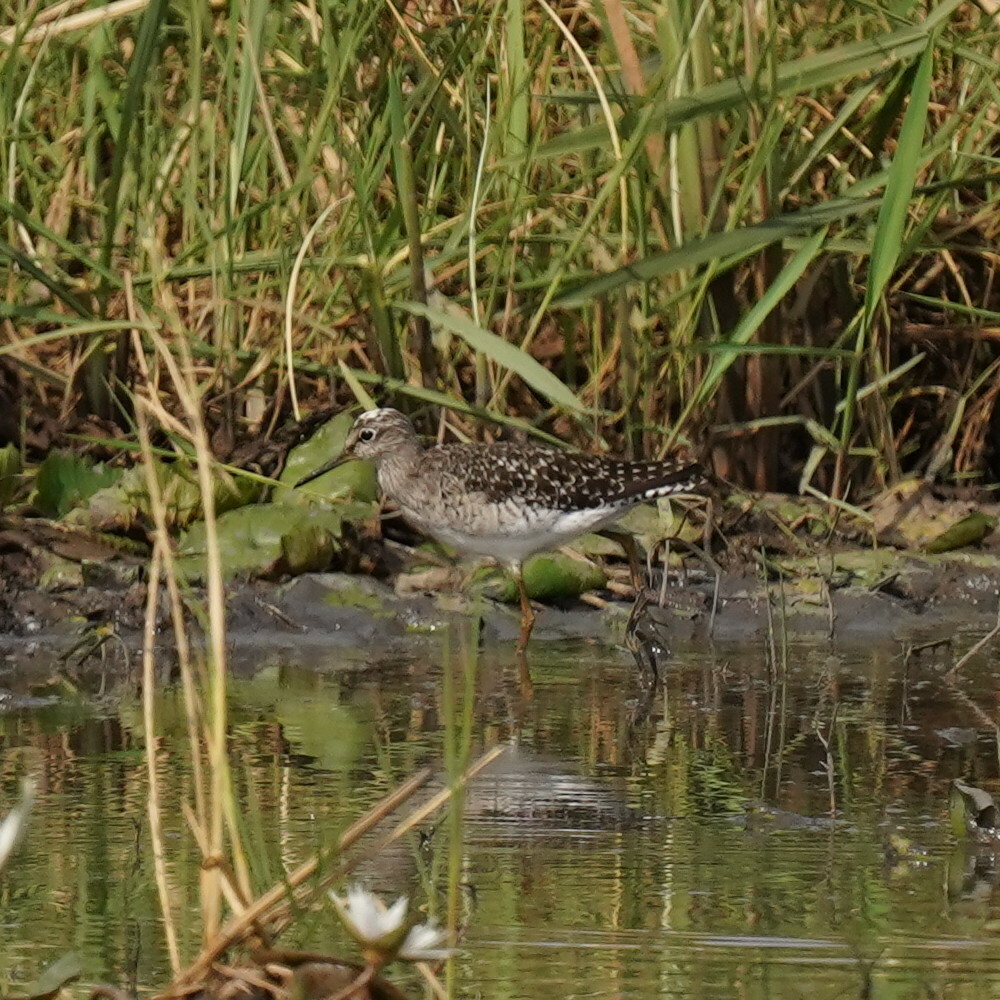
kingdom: Animalia
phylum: Chordata
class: Aves
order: Charadriiformes
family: Scolopacidae
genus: Tringa
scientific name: Tringa glareola
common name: Wood sandpiper
